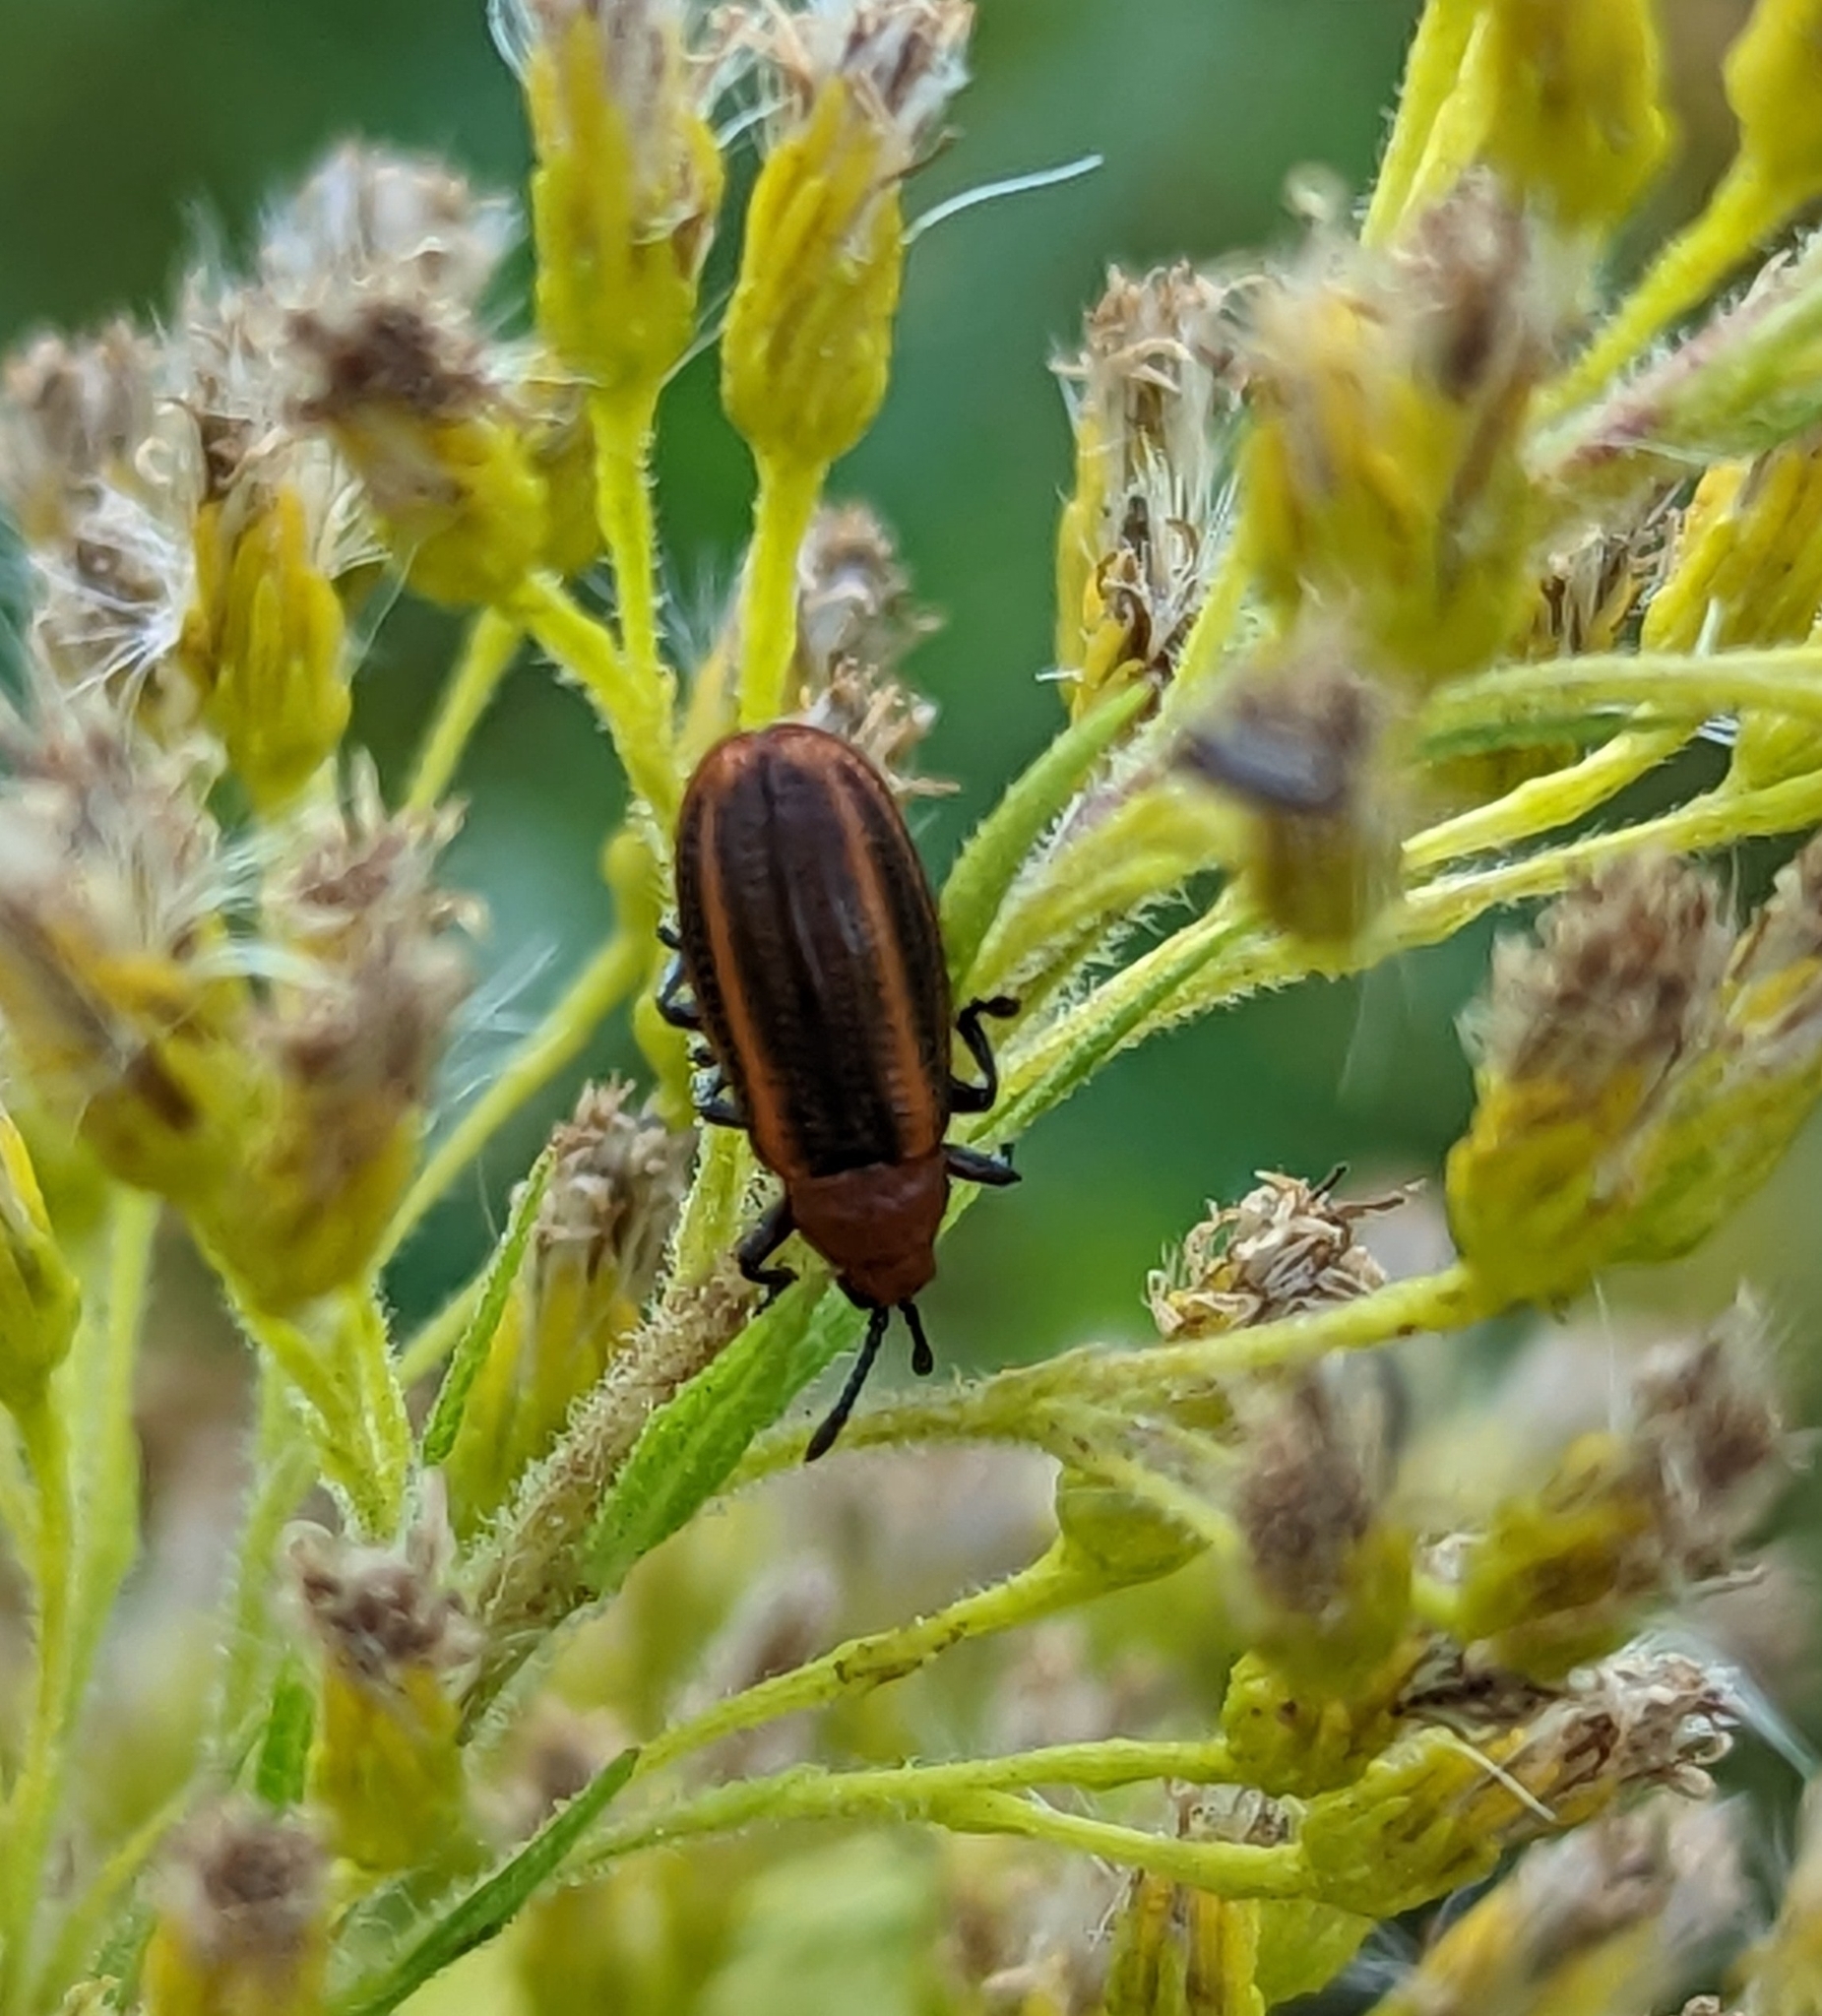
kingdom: Animalia
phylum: Arthropoda
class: Insecta
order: Coleoptera
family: Chrysomelidae
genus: Microrhopala
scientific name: Microrhopala vittata
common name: Goldenrod leaf miner beetle
